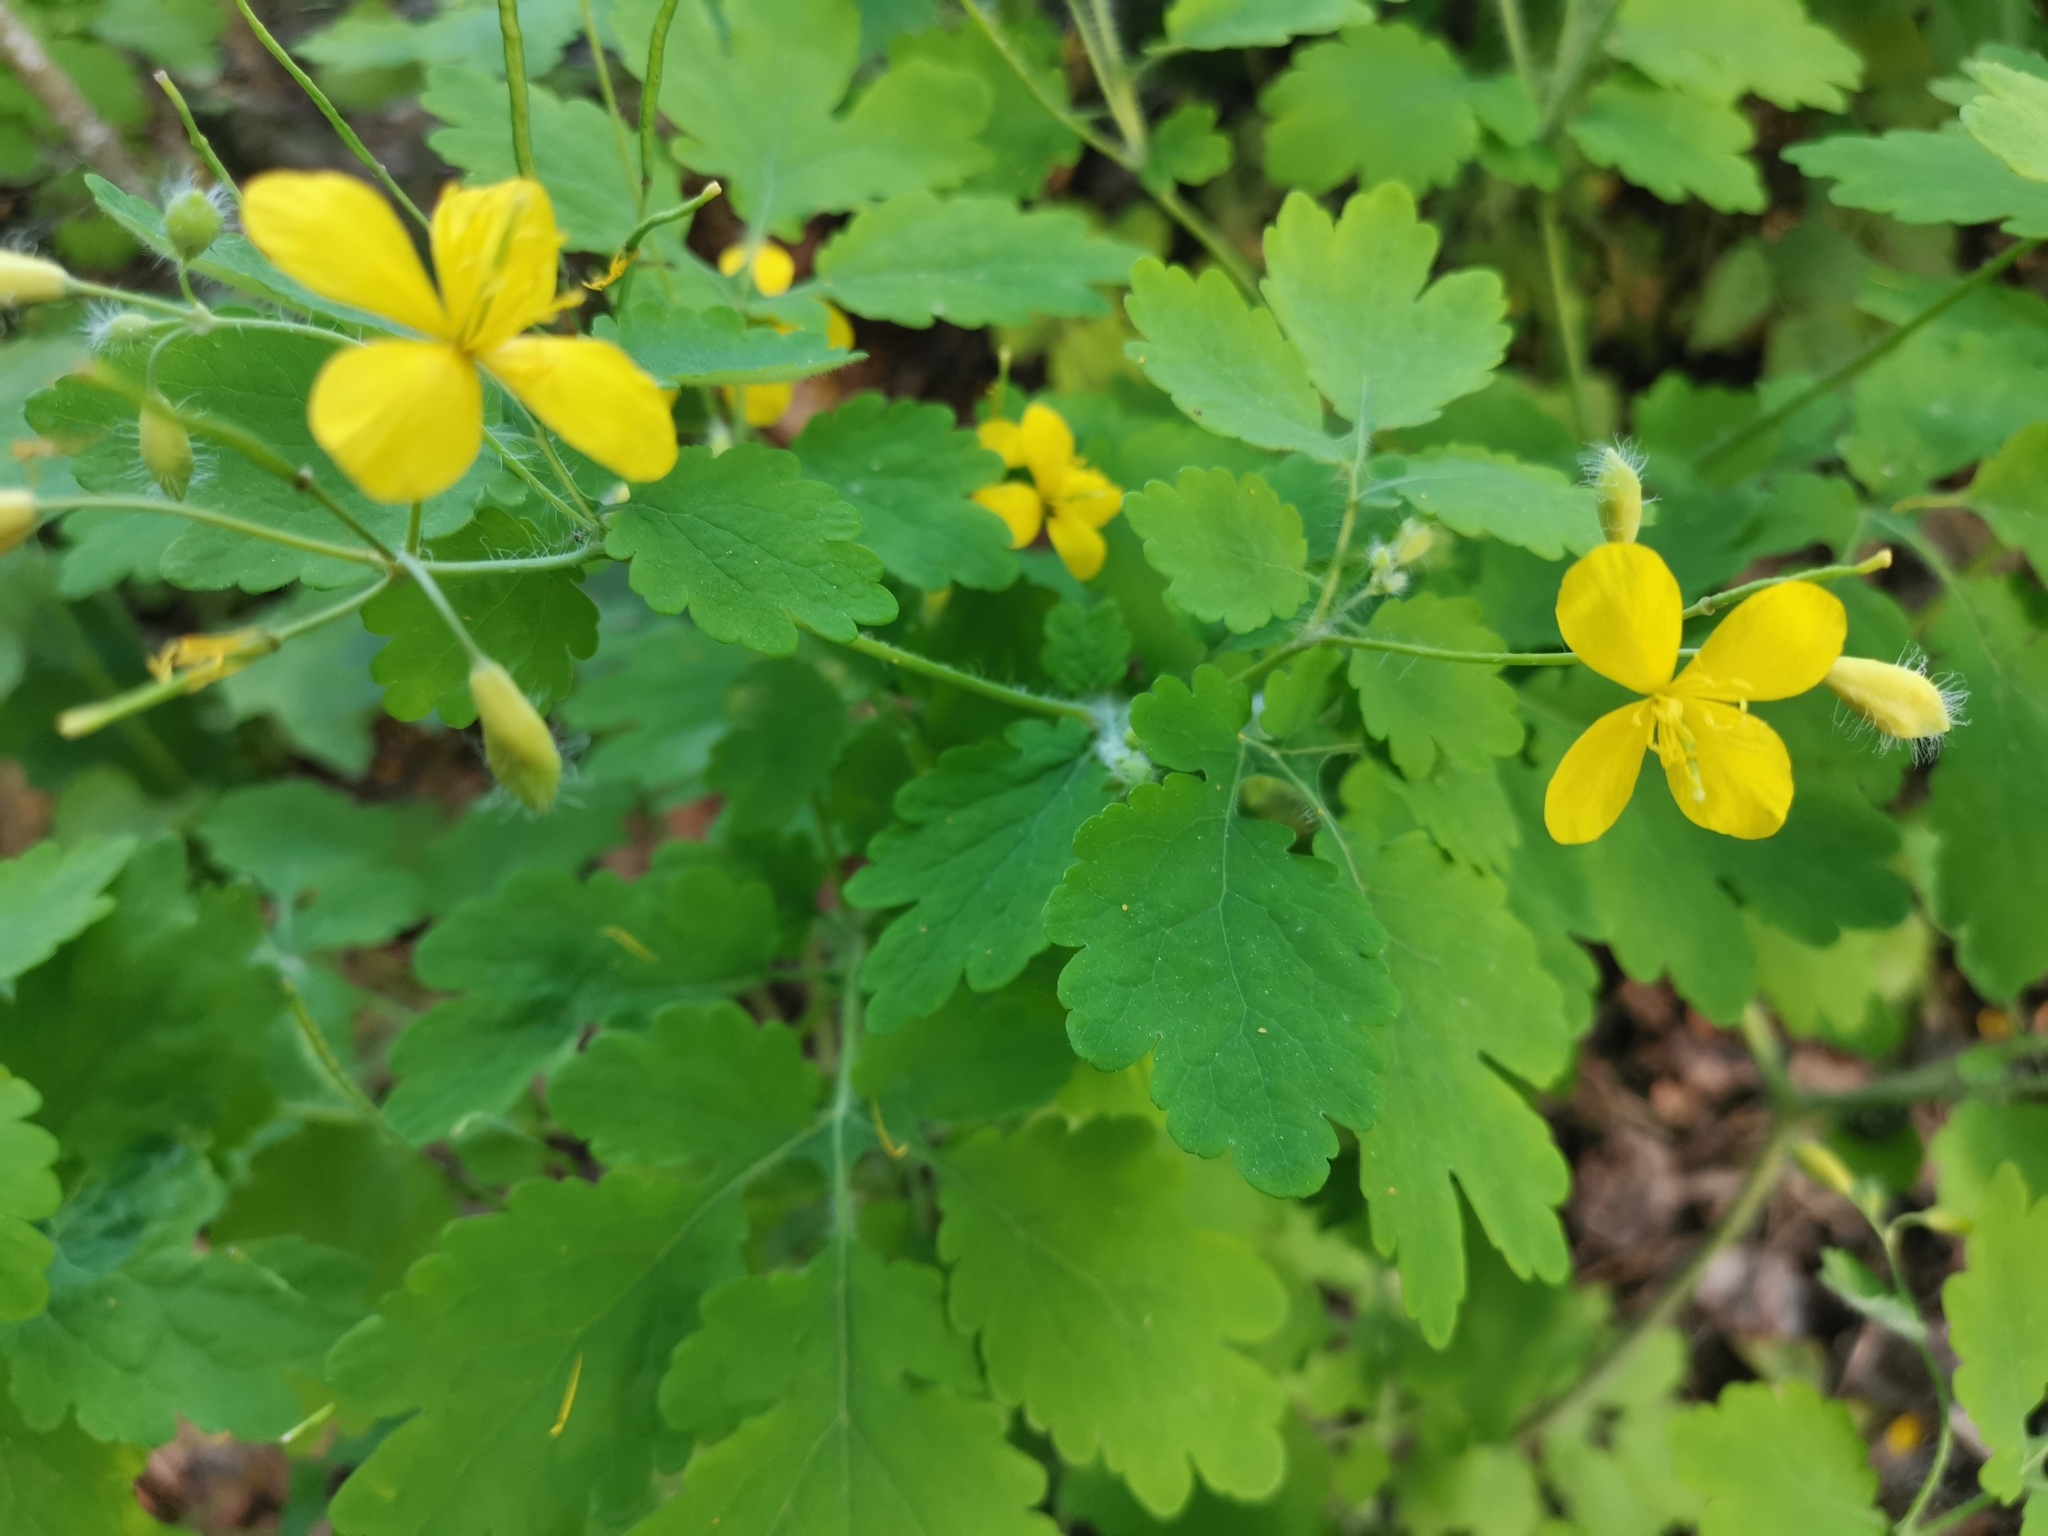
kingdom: Plantae
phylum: Tracheophyta
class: Magnoliopsida
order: Ranunculales
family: Papaveraceae
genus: Chelidonium
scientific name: Chelidonium majus
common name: Greater celandine
